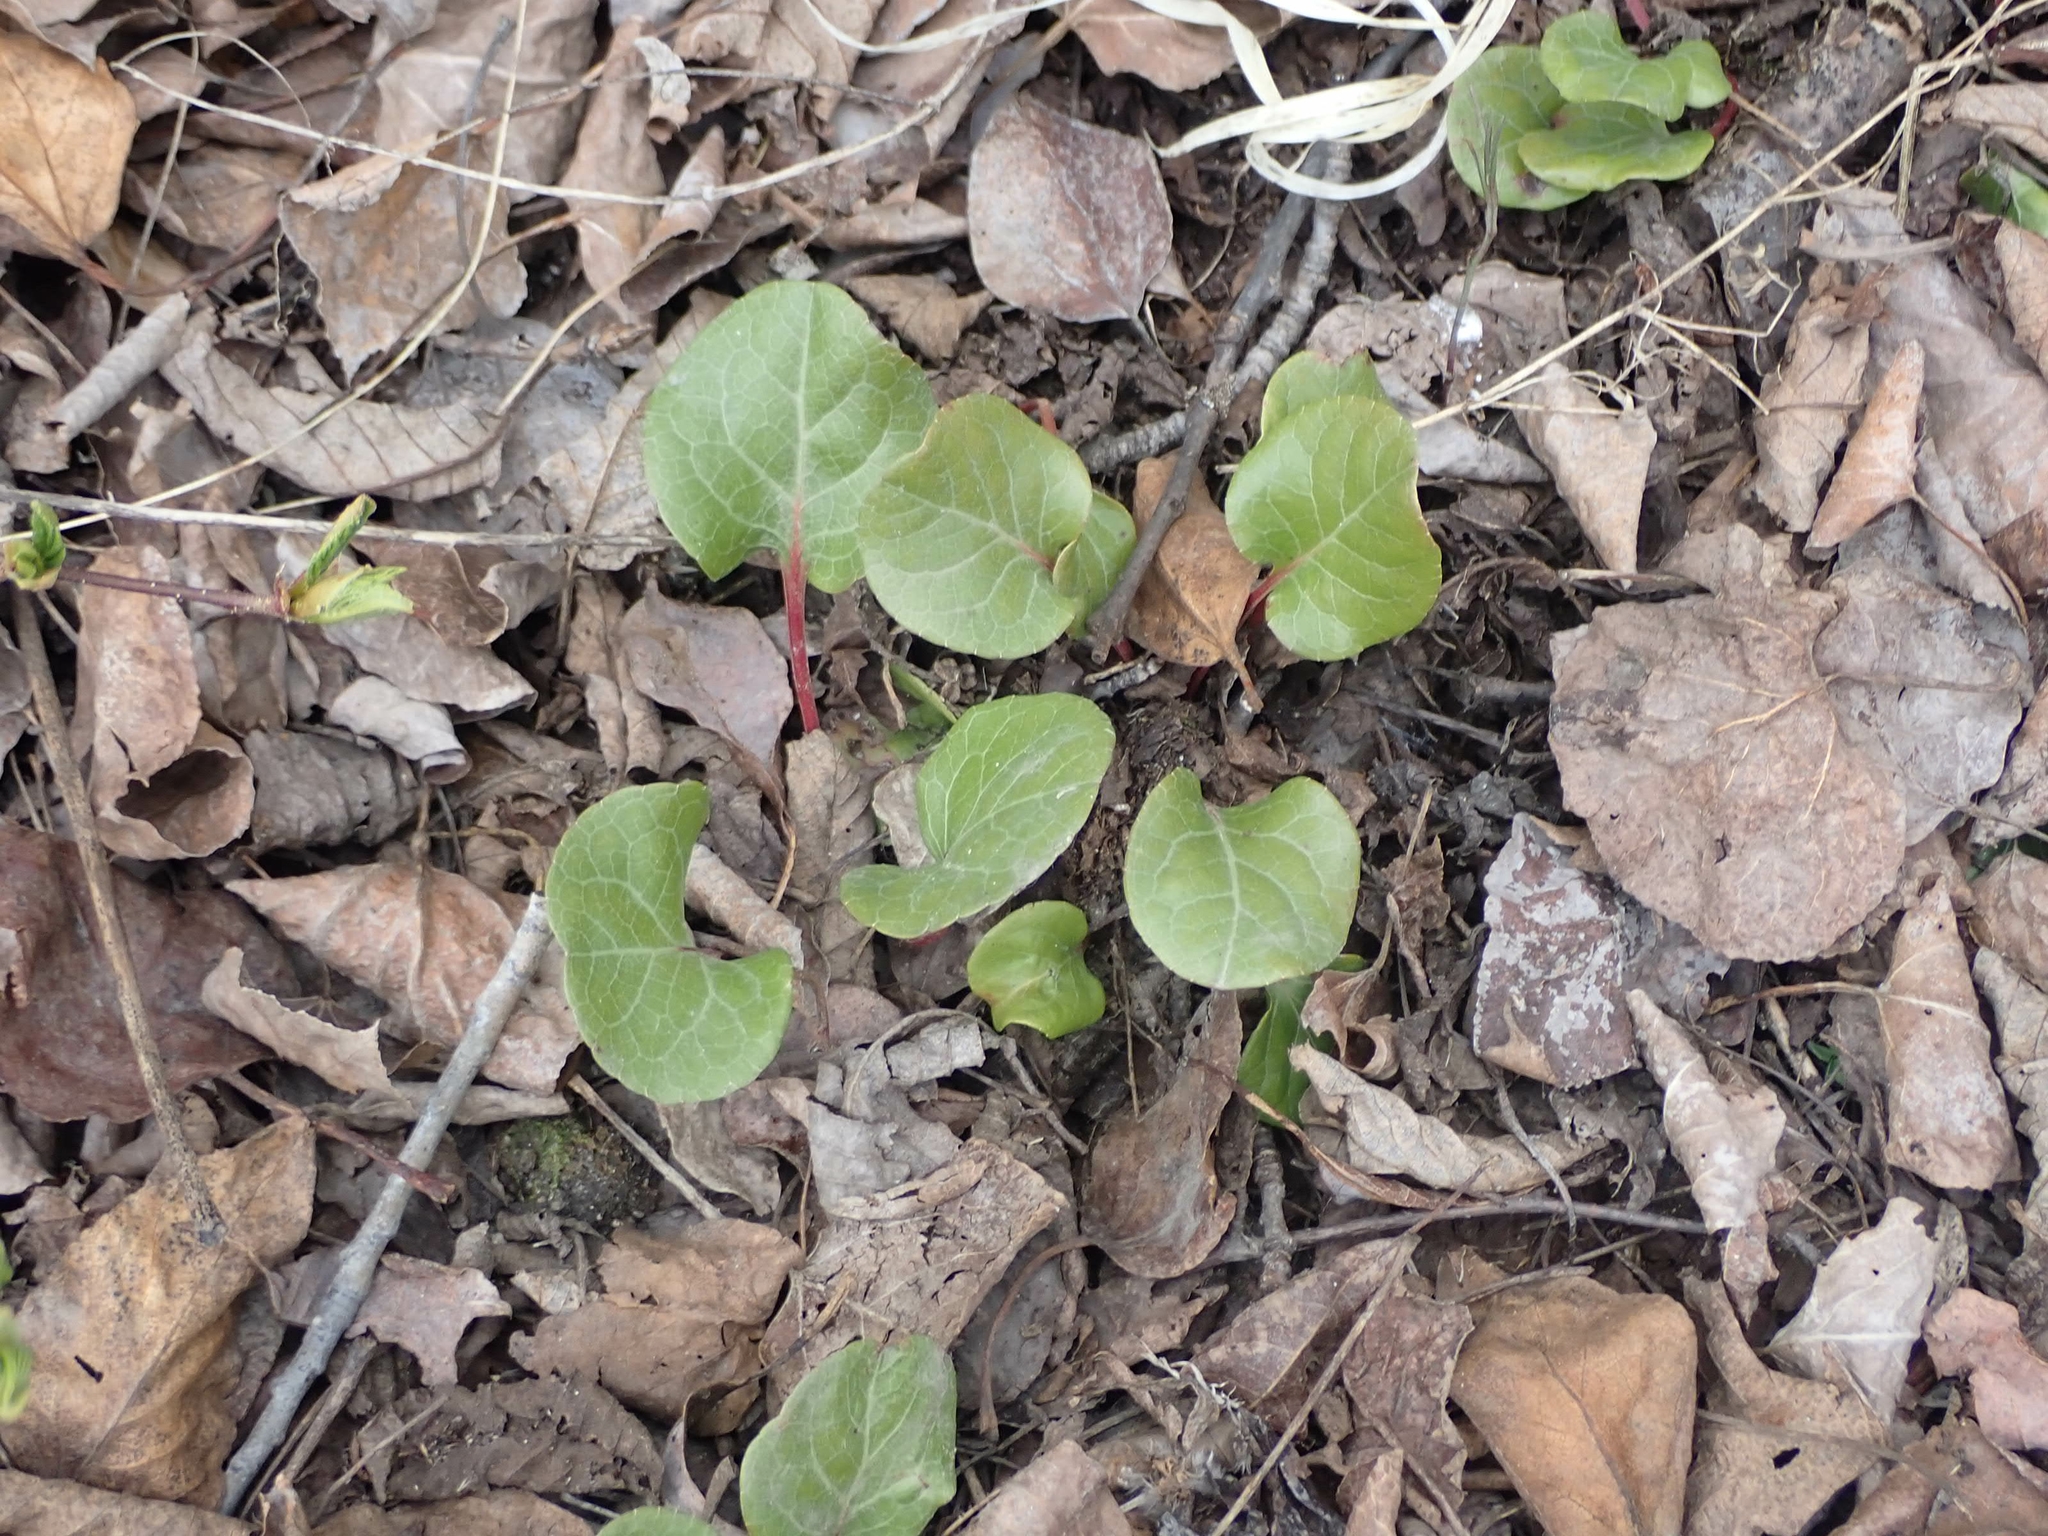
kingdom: Plantae
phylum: Tracheophyta
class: Magnoliopsida
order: Ericales
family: Ericaceae
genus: Pyrola
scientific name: Pyrola asarifolia
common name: Bog wintergreen
